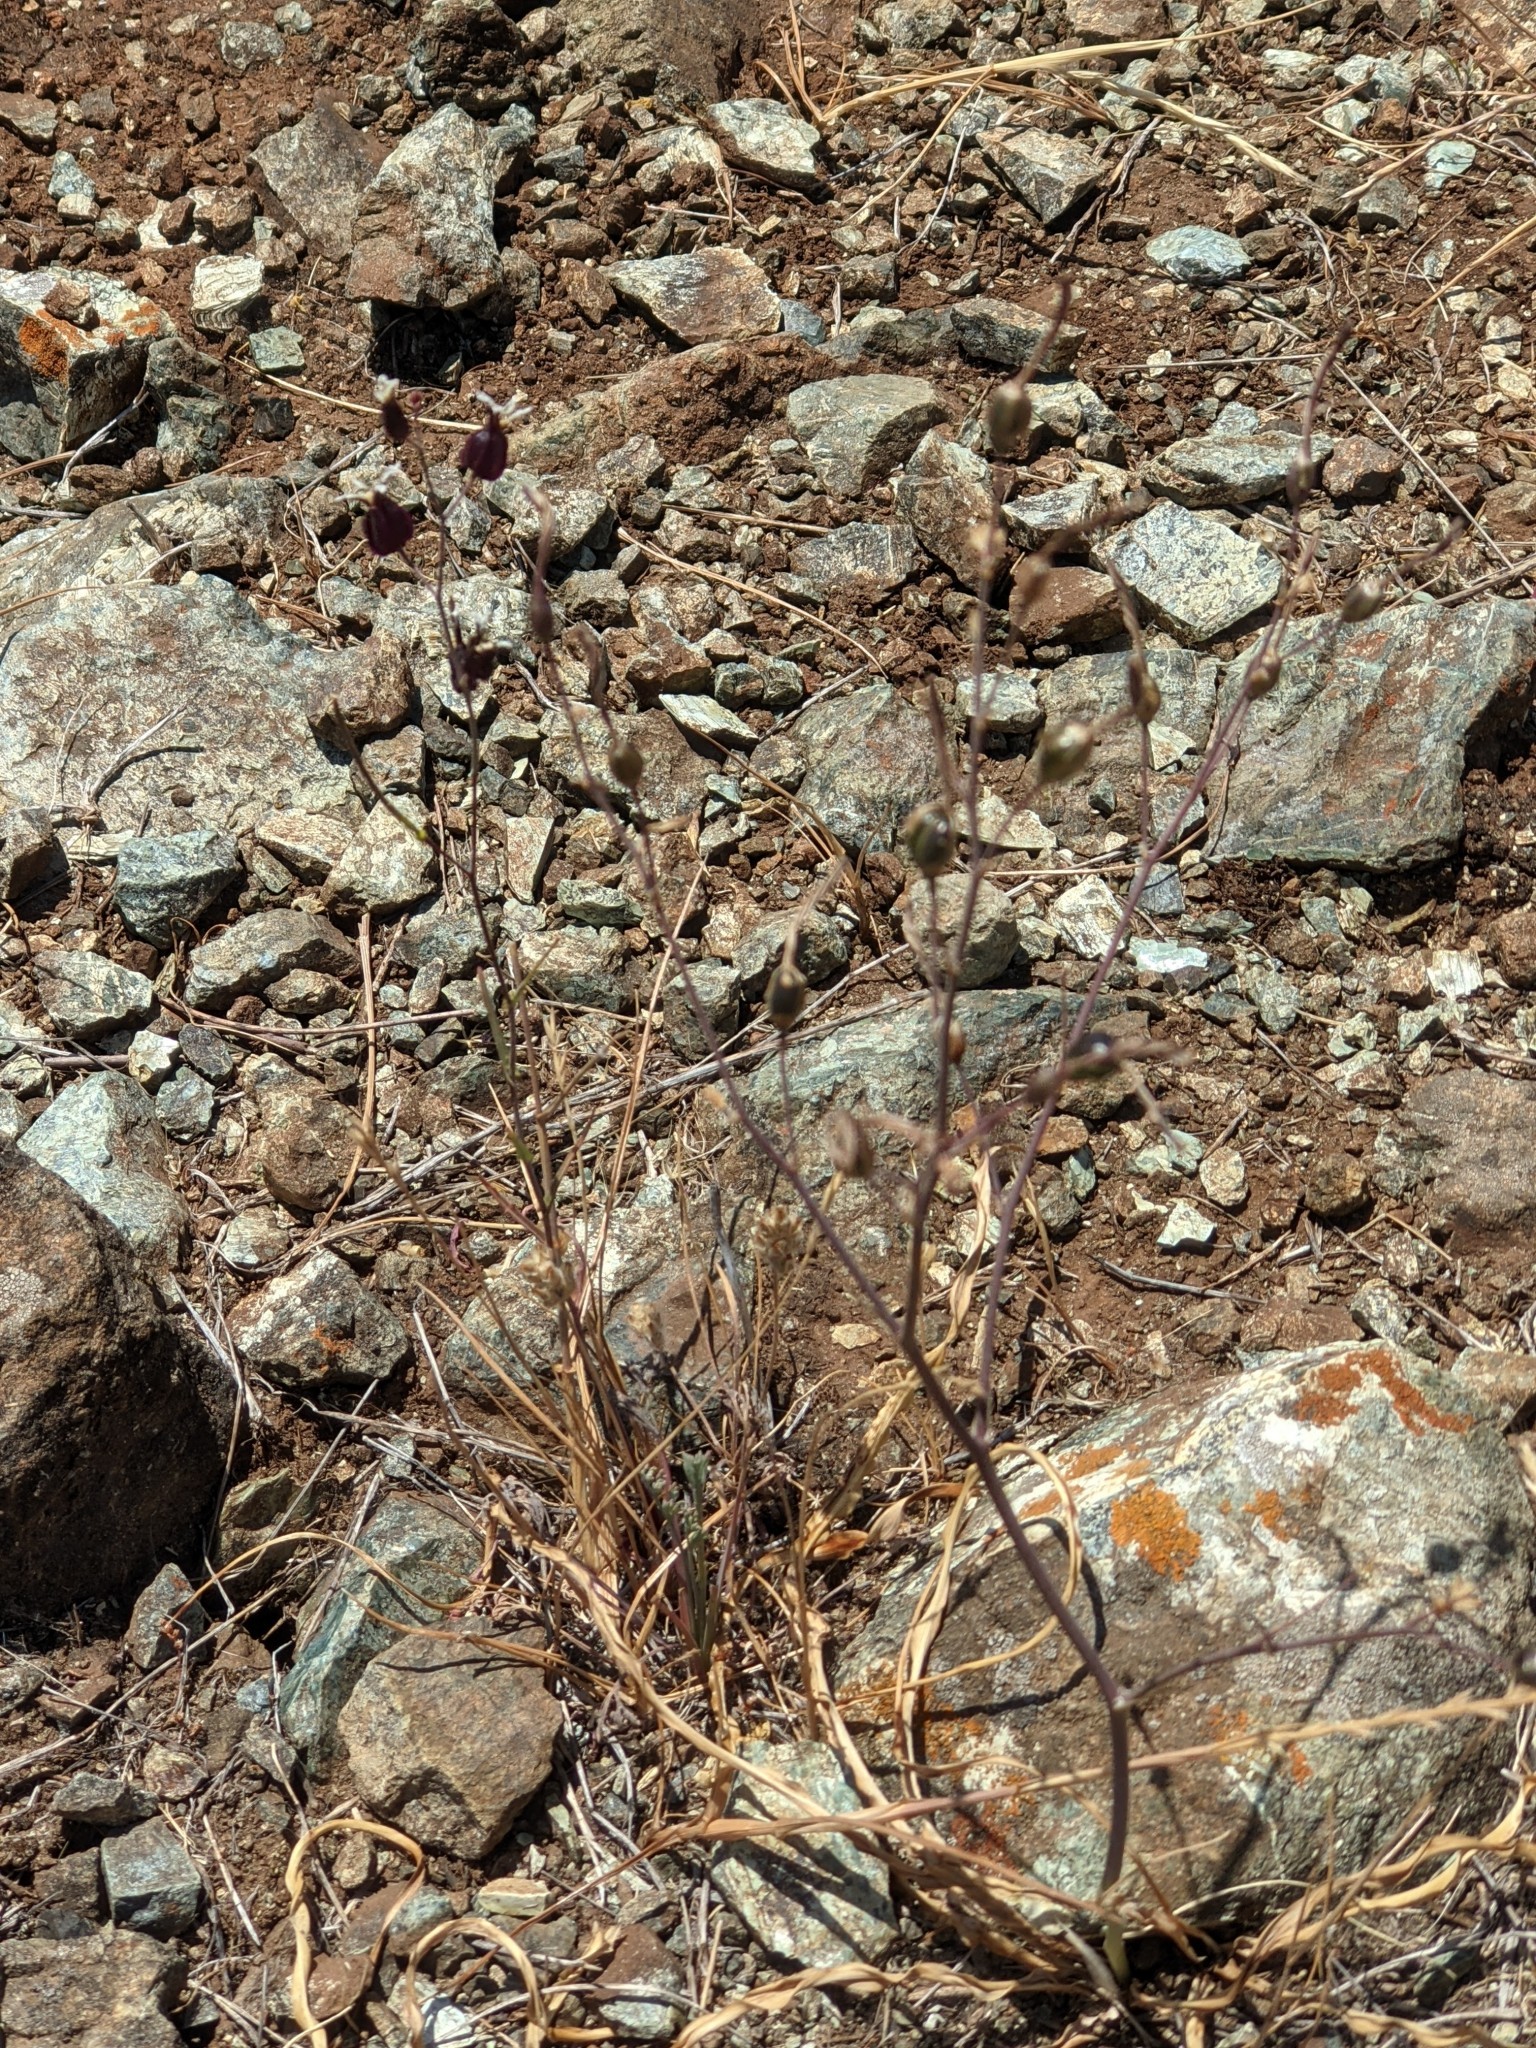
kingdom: Plantae
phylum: Tracheophyta
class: Magnoliopsida
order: Brassicales
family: Brassicaceae
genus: Streptanthus
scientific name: Streptanthus glandulosus
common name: Jewel-flower
